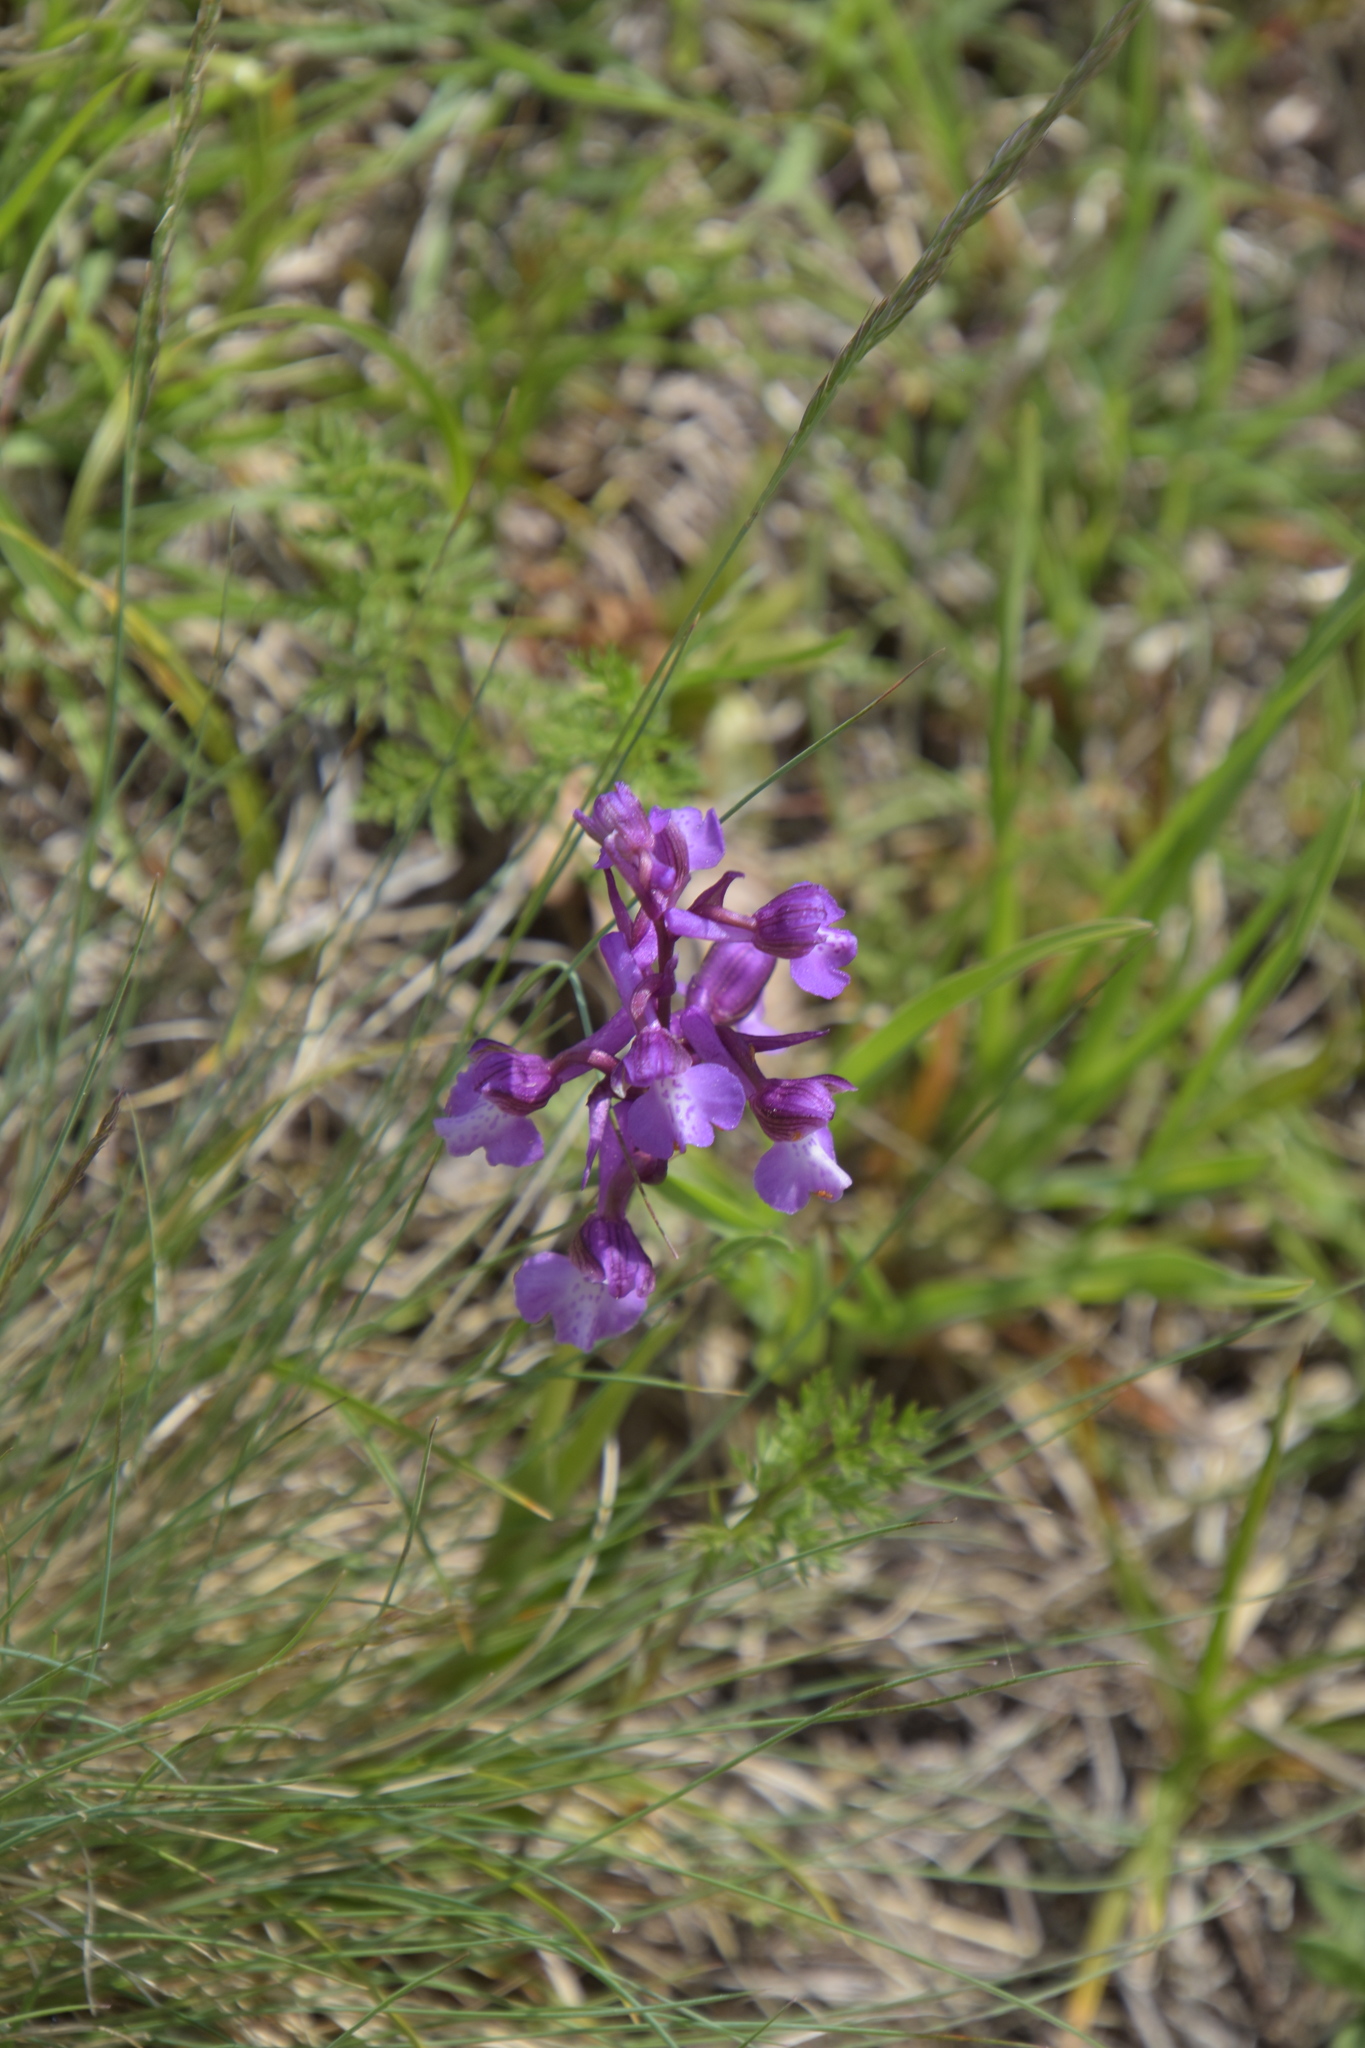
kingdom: Plantae
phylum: Tracheophyta
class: Liliopsida
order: Asparagales
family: Orchidaceae
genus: Anacamptis
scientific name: Anacamptis morio
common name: Green-winged orchid
